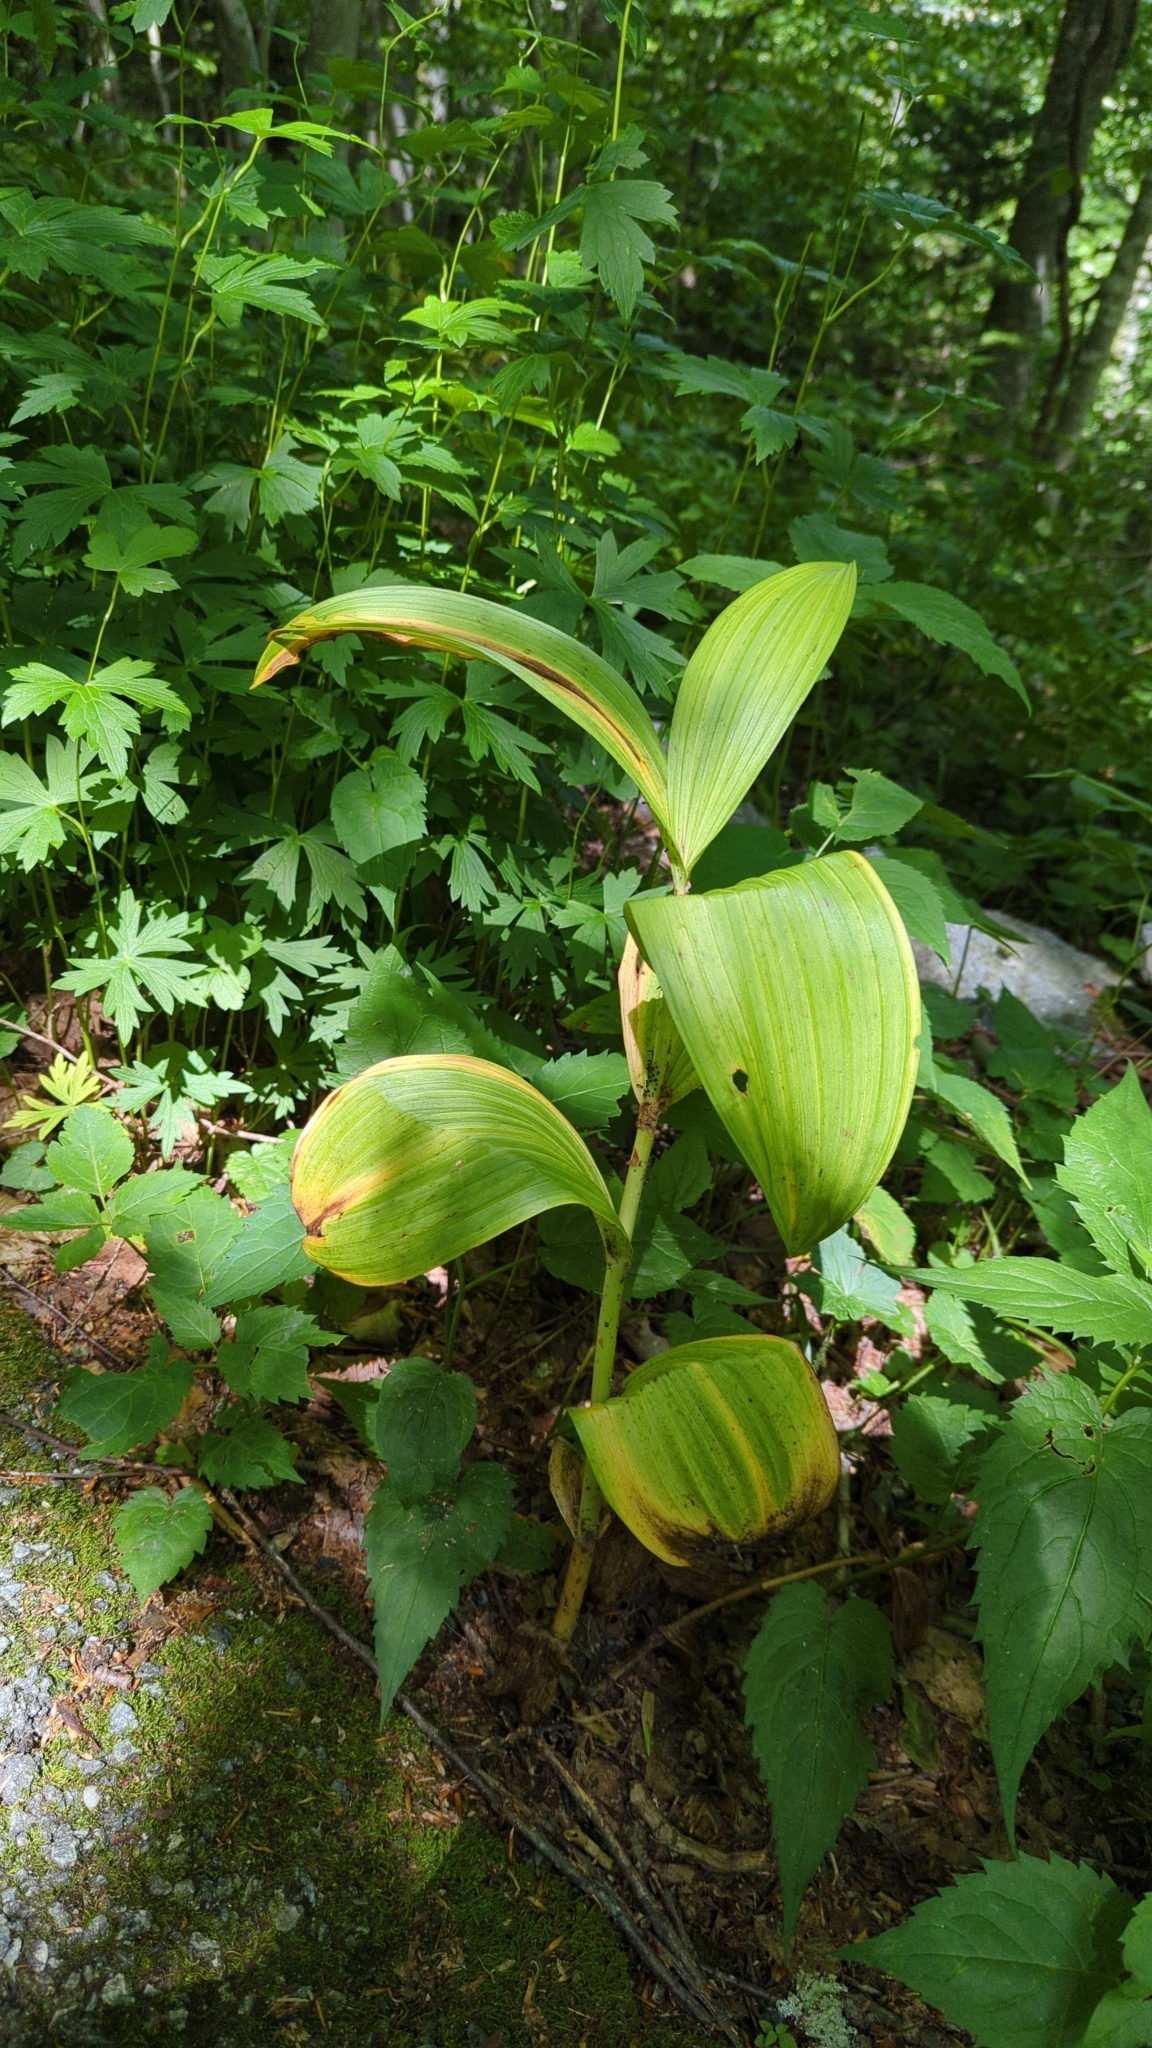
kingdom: Plantae
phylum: Tracheophyta
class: Liliopsida
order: Liliales
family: Melanthiaceae
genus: Veratrum
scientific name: Veratrum viride
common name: American false hellebore
